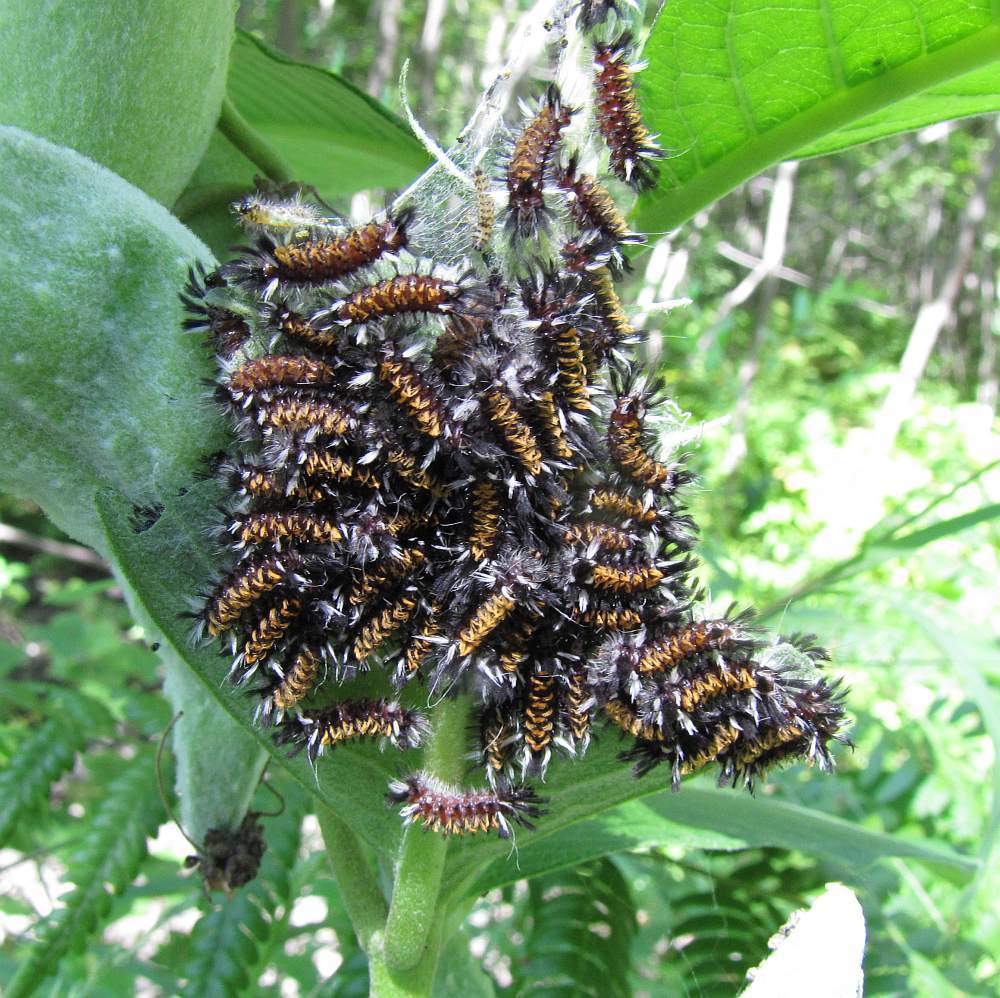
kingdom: Animalia
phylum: Arthropoda
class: Insecta
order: Lepidoptera
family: Erebidae
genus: Euchaetes
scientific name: Euchaetes egle
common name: Milkweed tussock moth
